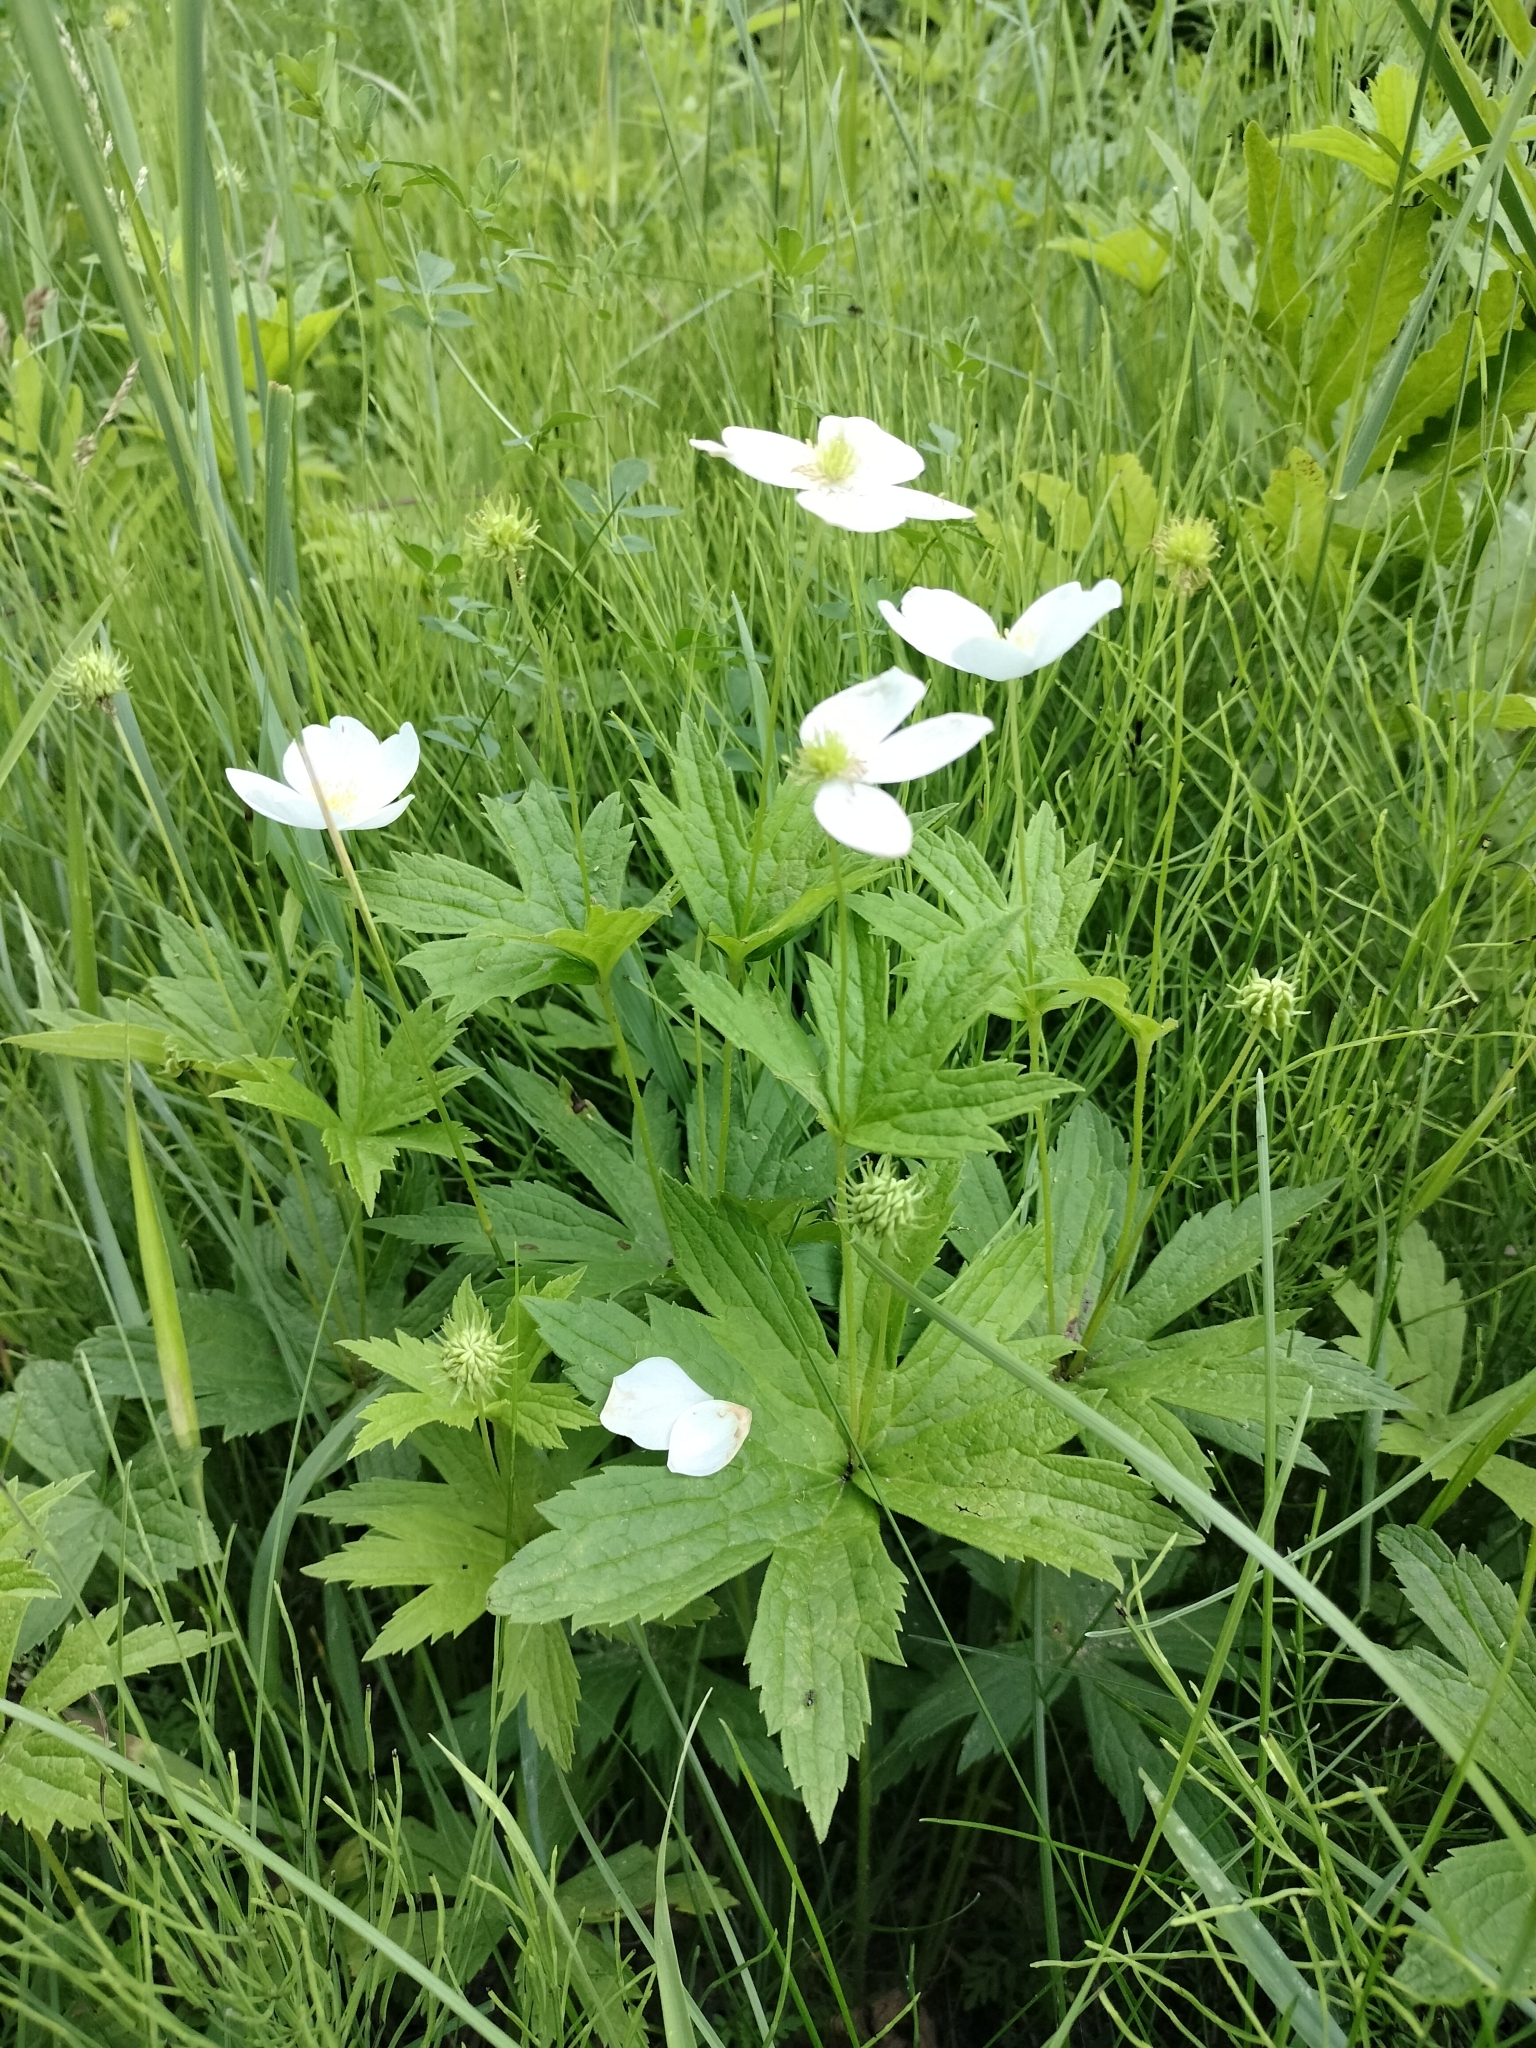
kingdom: Plantae
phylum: Tracheophyta
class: Magnoliopsida
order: Ranunculales
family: Ranunculaceae
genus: Anemonastrum
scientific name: Anemonastrum canadense
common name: Canada anemone
